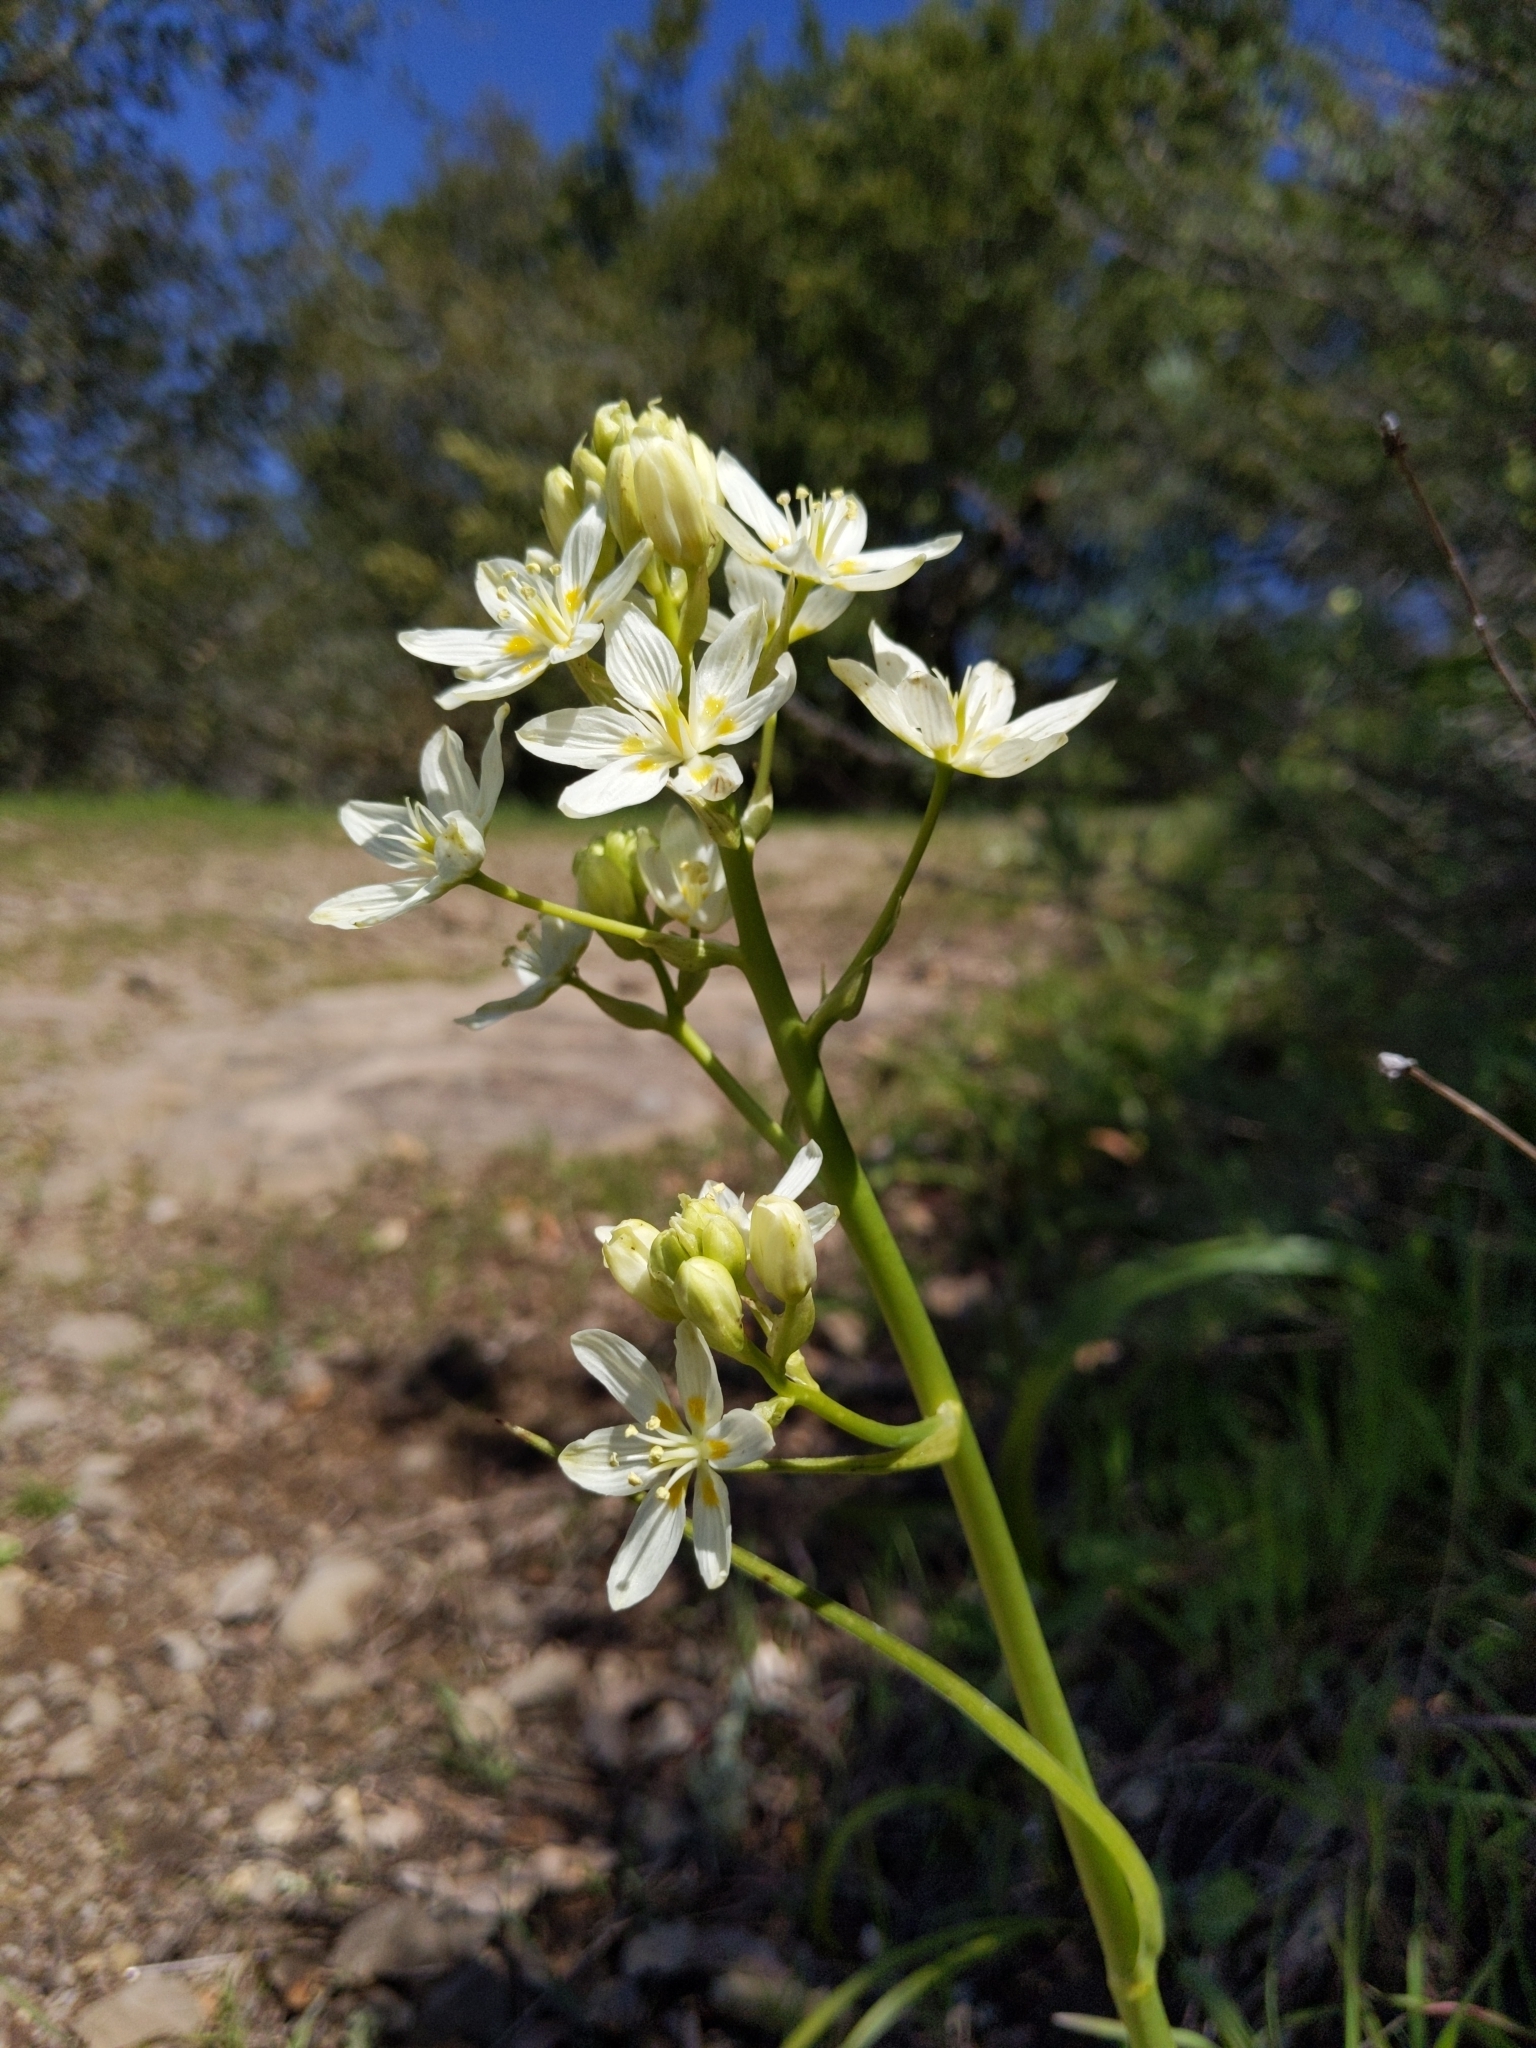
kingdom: Plantae
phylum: Tracheophyta
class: Liliopsida
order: Liliales
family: Melanthiaceae
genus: Toxicoscordion
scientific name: Toxicoscordion fremontii
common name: Fremont's death camas
